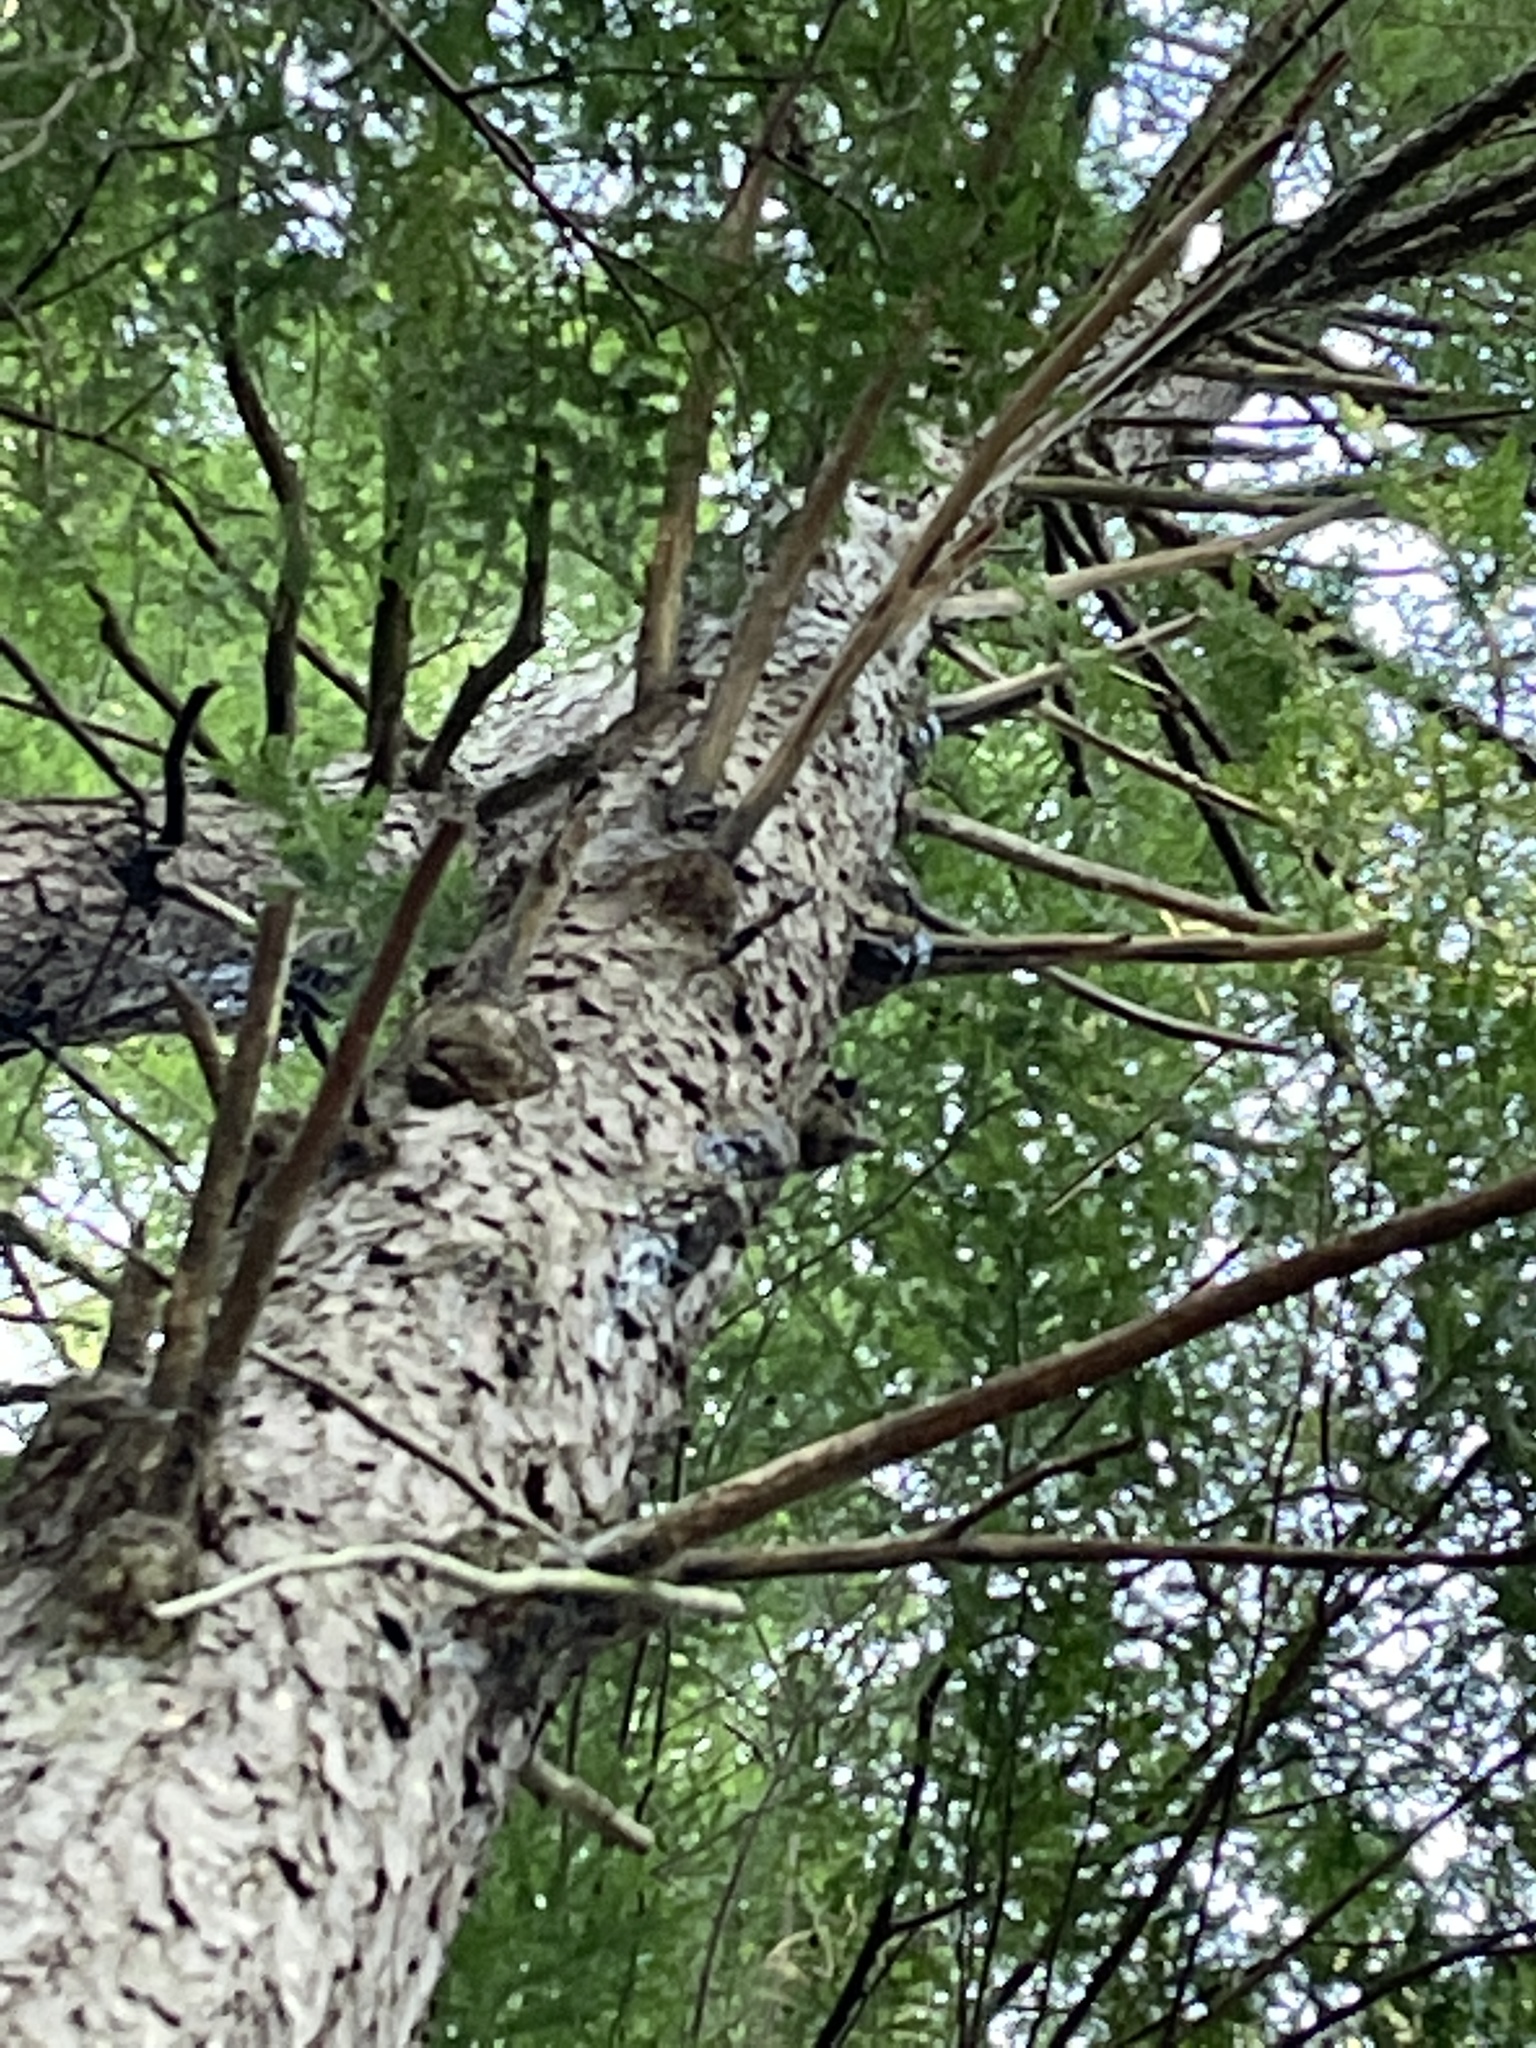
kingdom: Plantae
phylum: Tracheophyta
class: Pinopsida
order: Pinales
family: Pinaceae
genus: Tsuga
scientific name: Tsuga canadensis
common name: Eastern hemlock
